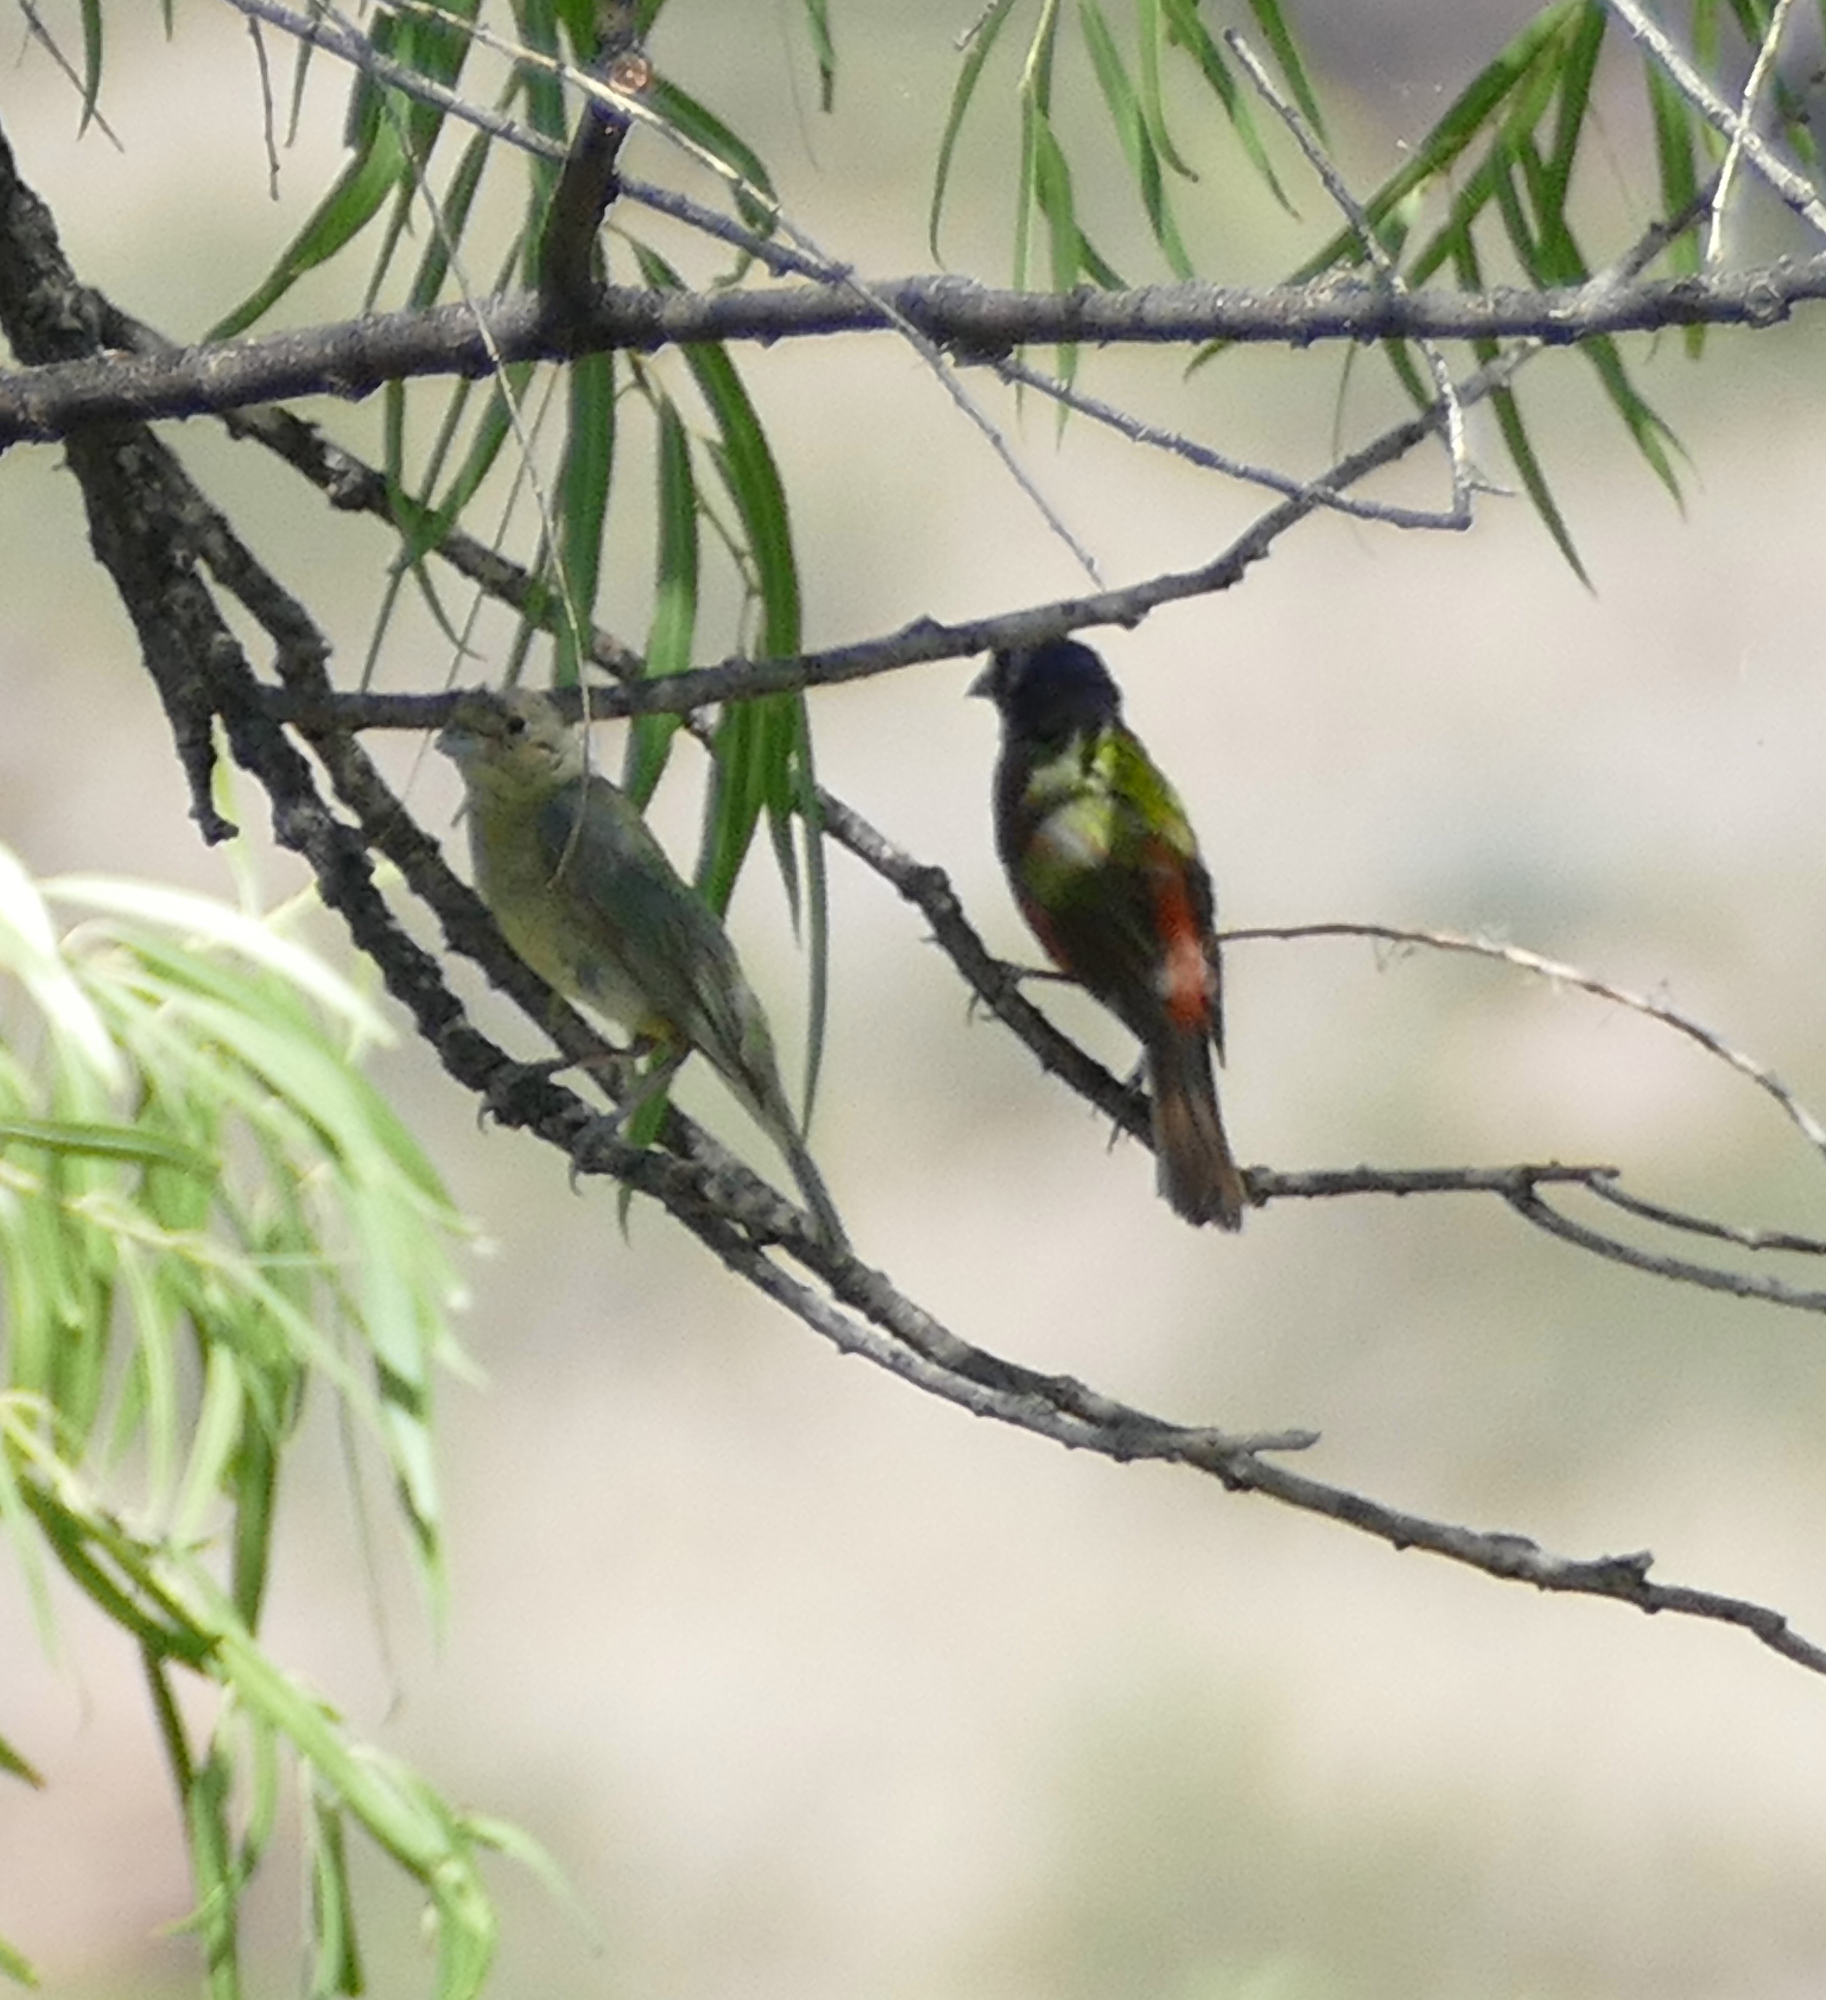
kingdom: Animalia
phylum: Chordata
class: Aves
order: Passeriformes
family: Cardinalidae
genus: Passerina
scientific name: Passerina ciris
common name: Painted bunting
